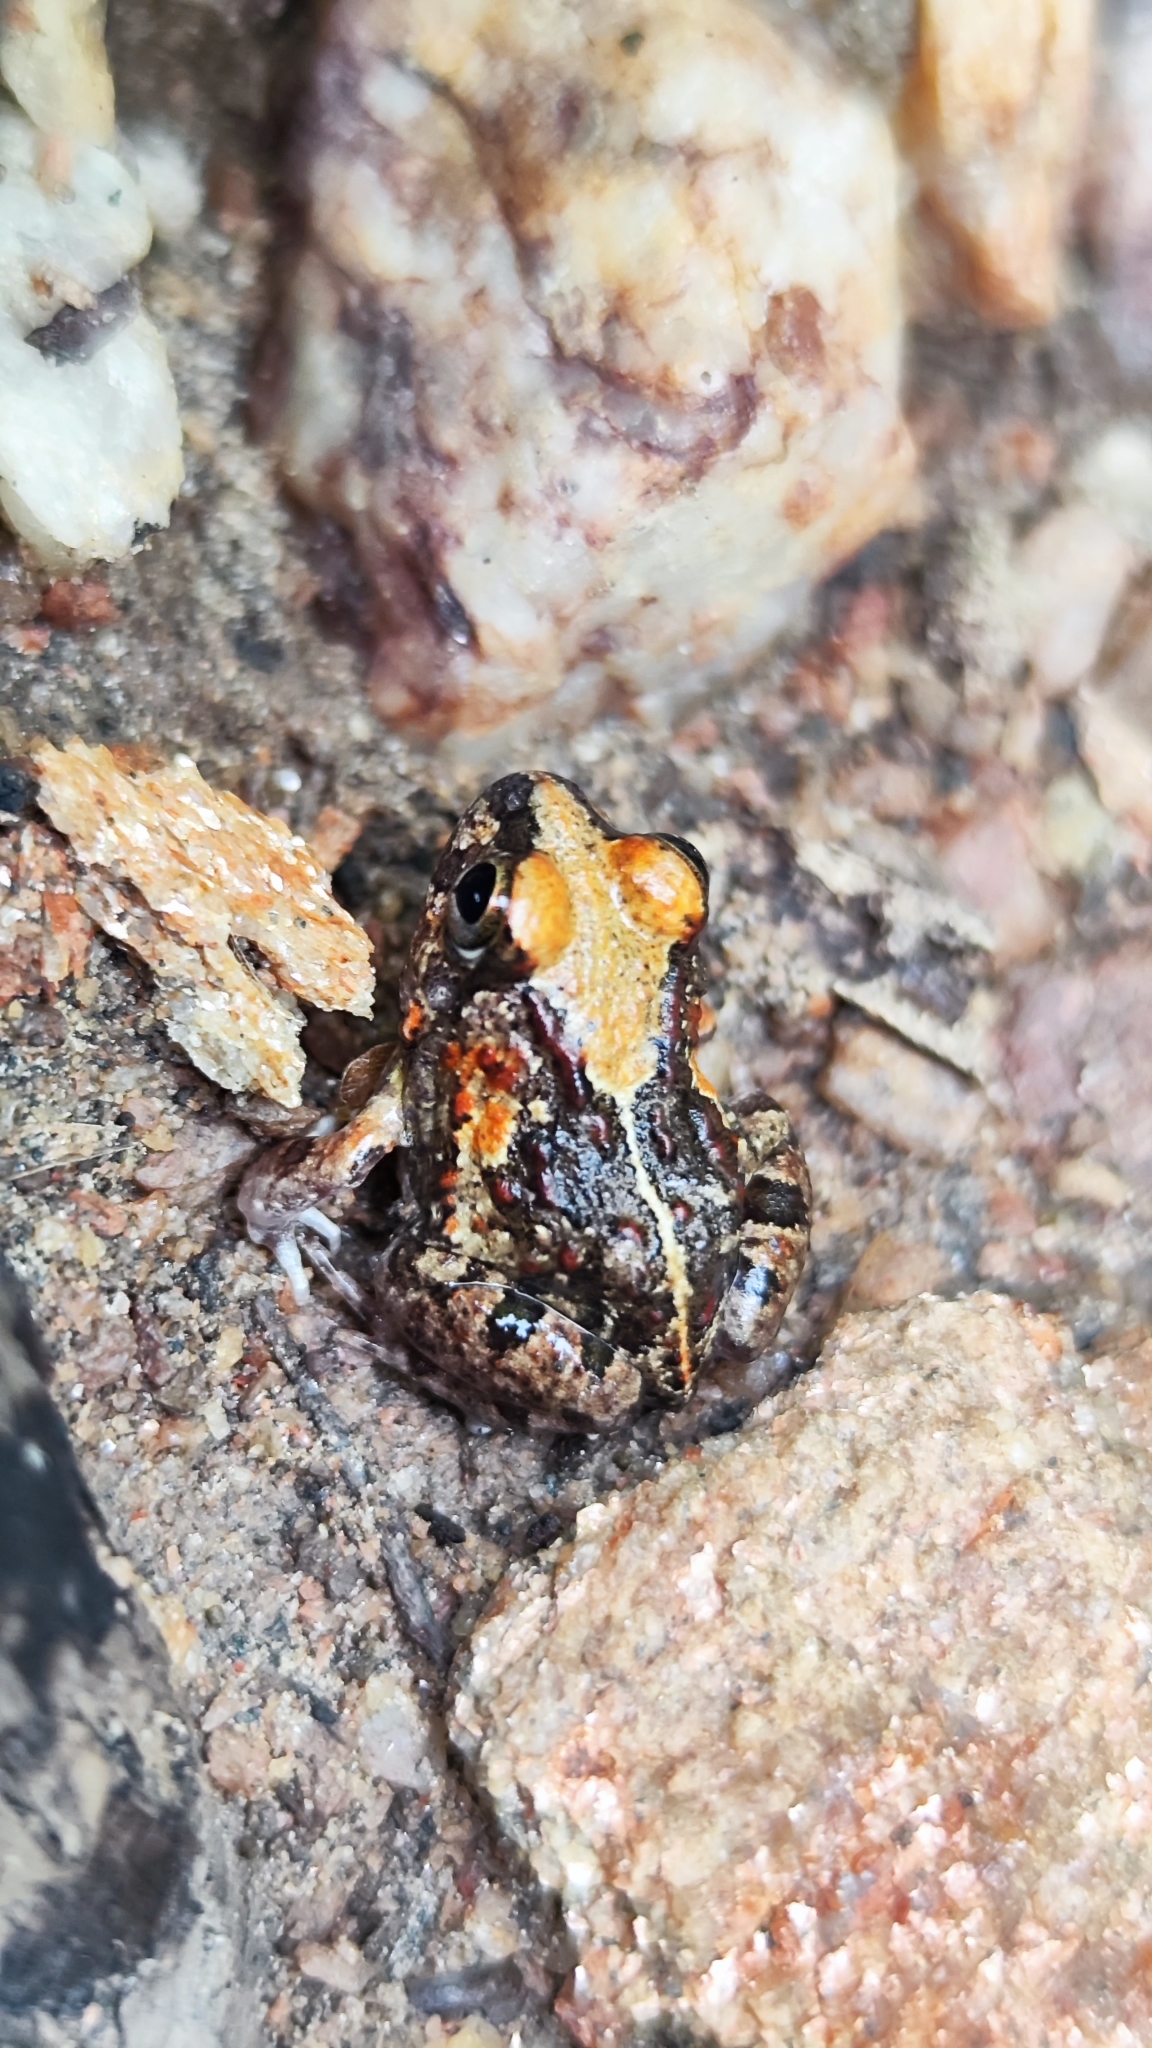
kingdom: Animalia
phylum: Chordata
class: Amphibia
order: Anura
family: Leptodactylidae
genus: Pleurodema
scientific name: Pleurodema diplolister
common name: Peters' four-eyed frog
